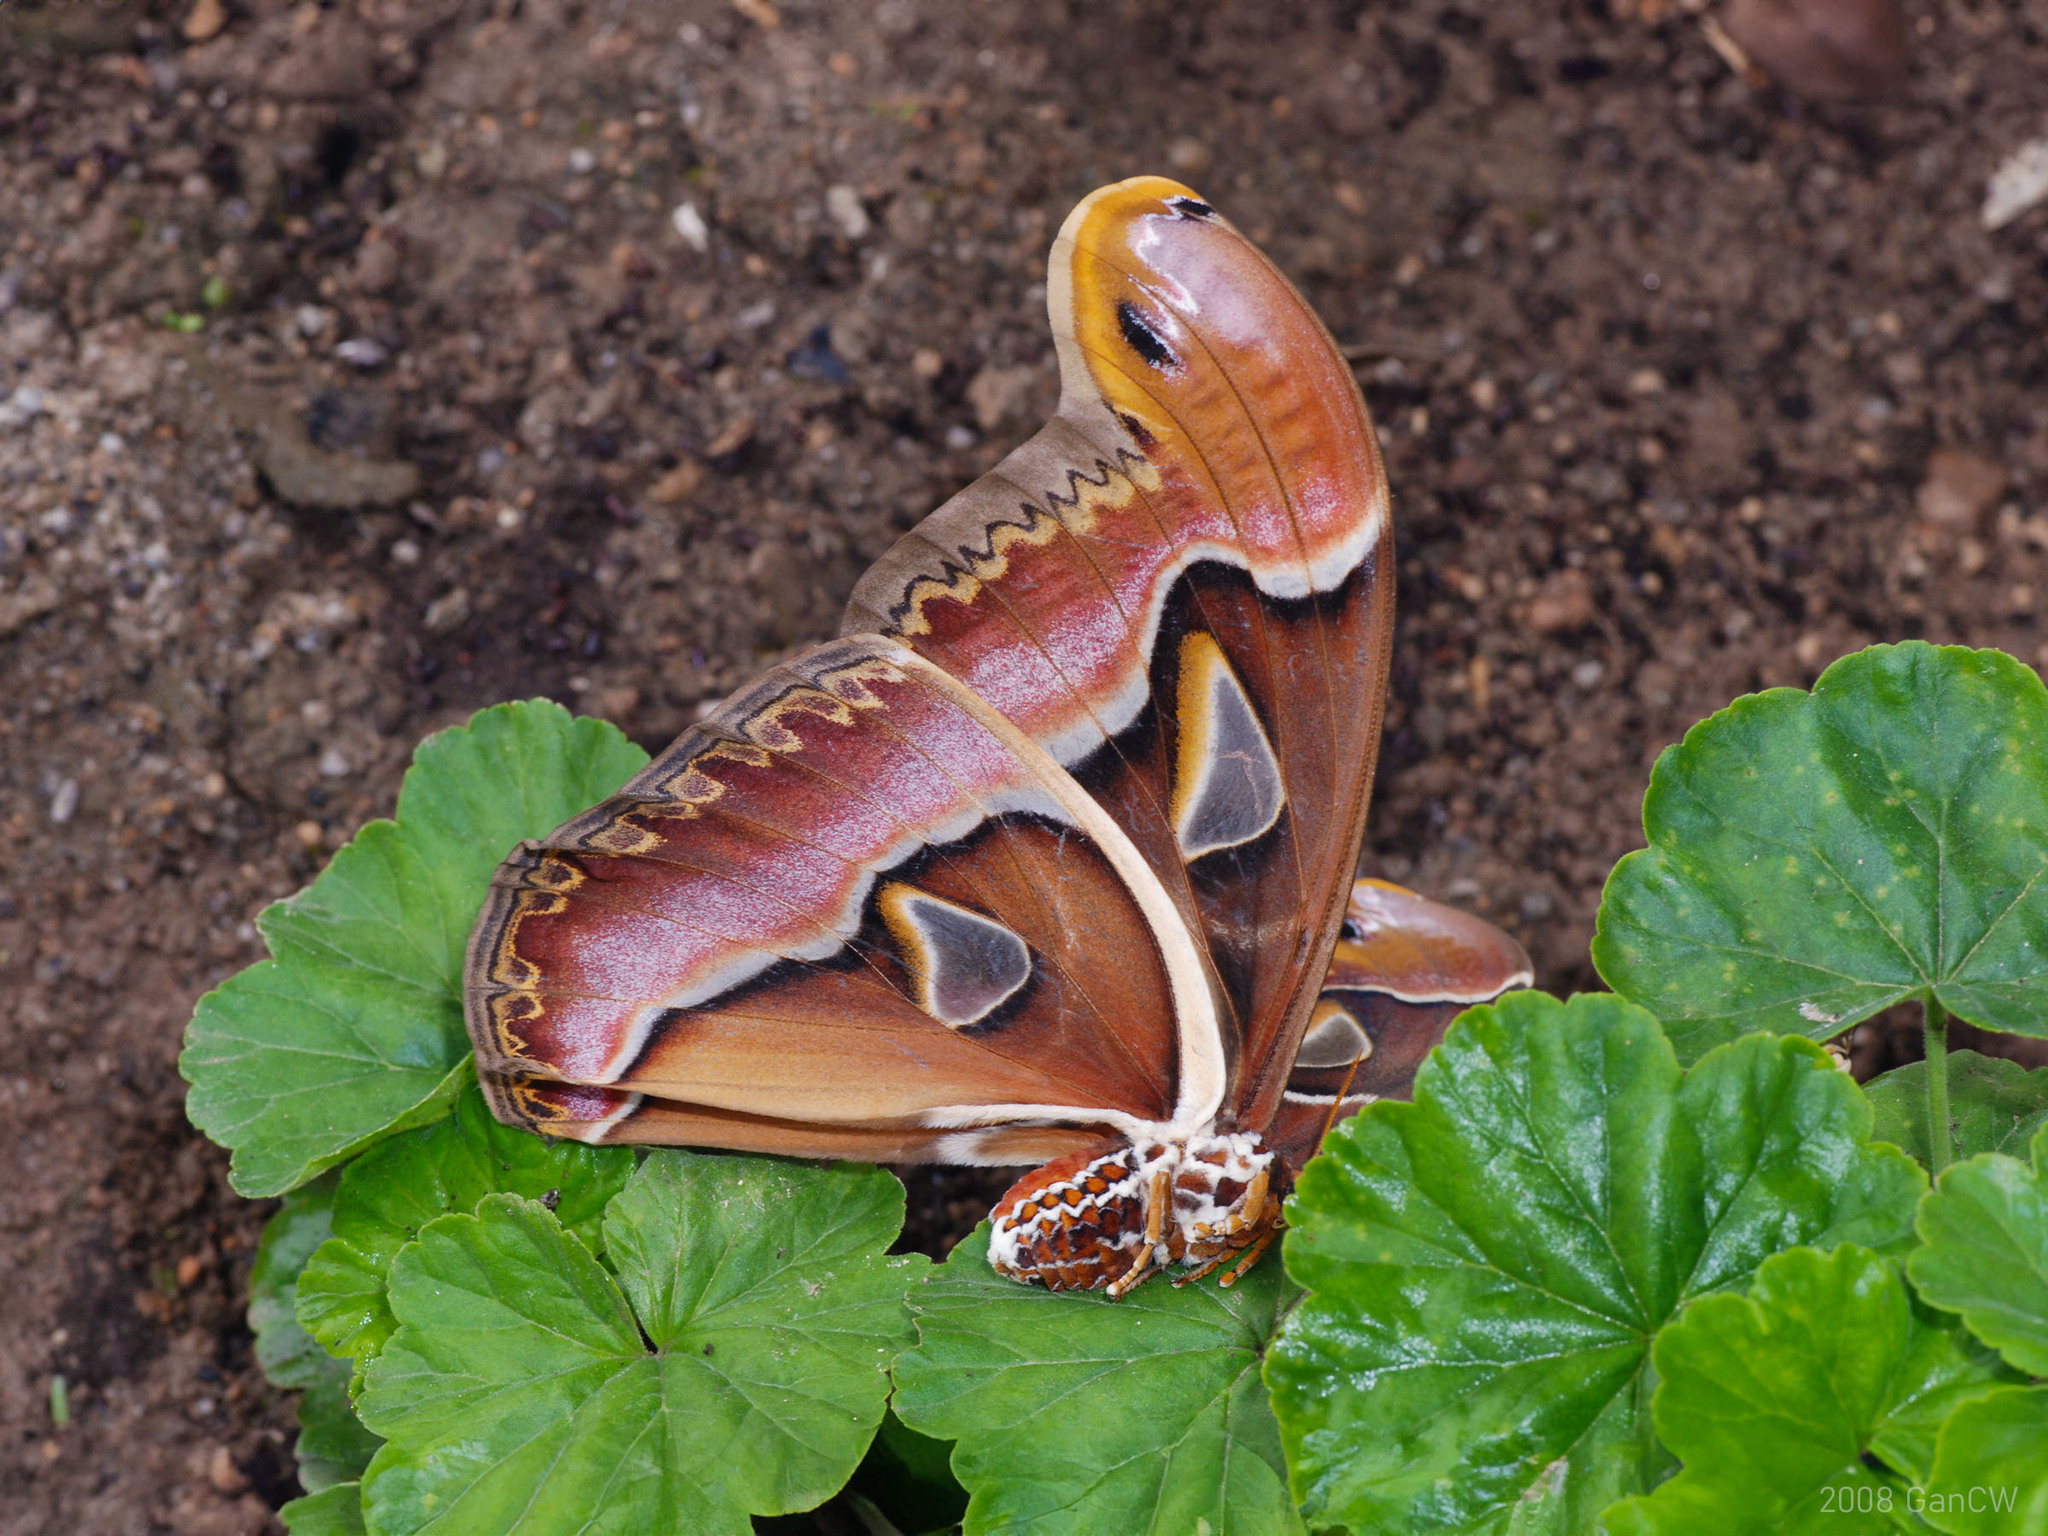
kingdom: Animalia
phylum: Arthropoda
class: Insecta
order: Lepidoptera
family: Saturniidae
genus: Archaeoattacus
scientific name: Archaeoattacus edwardsii
